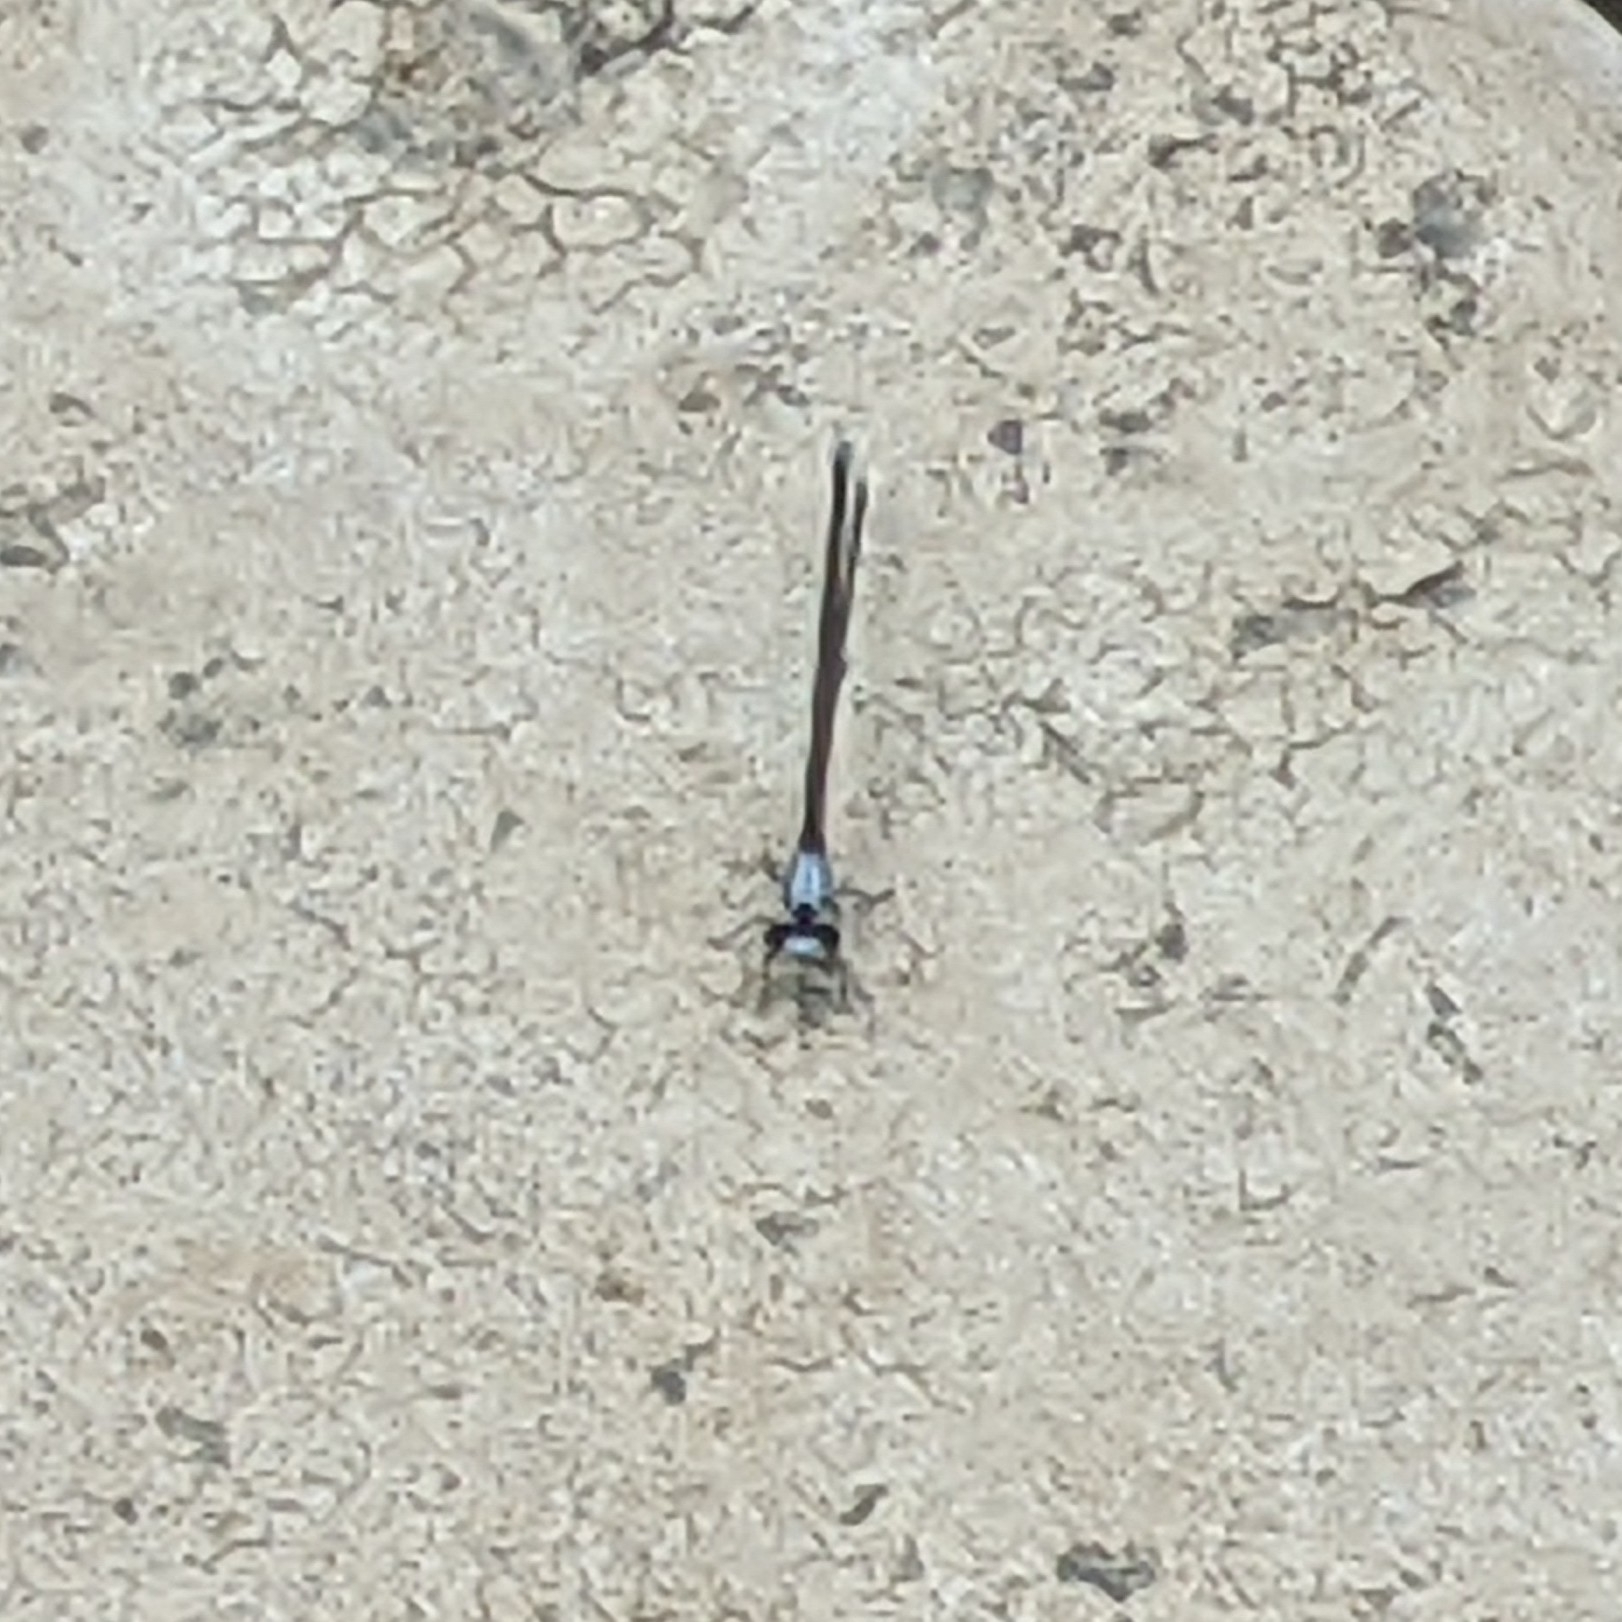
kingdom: Animalia
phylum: Arthropoda
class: Insecta
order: Odonata
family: Coenagrionidae
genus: Argia
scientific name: Argia moesta
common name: Powdered dancer
